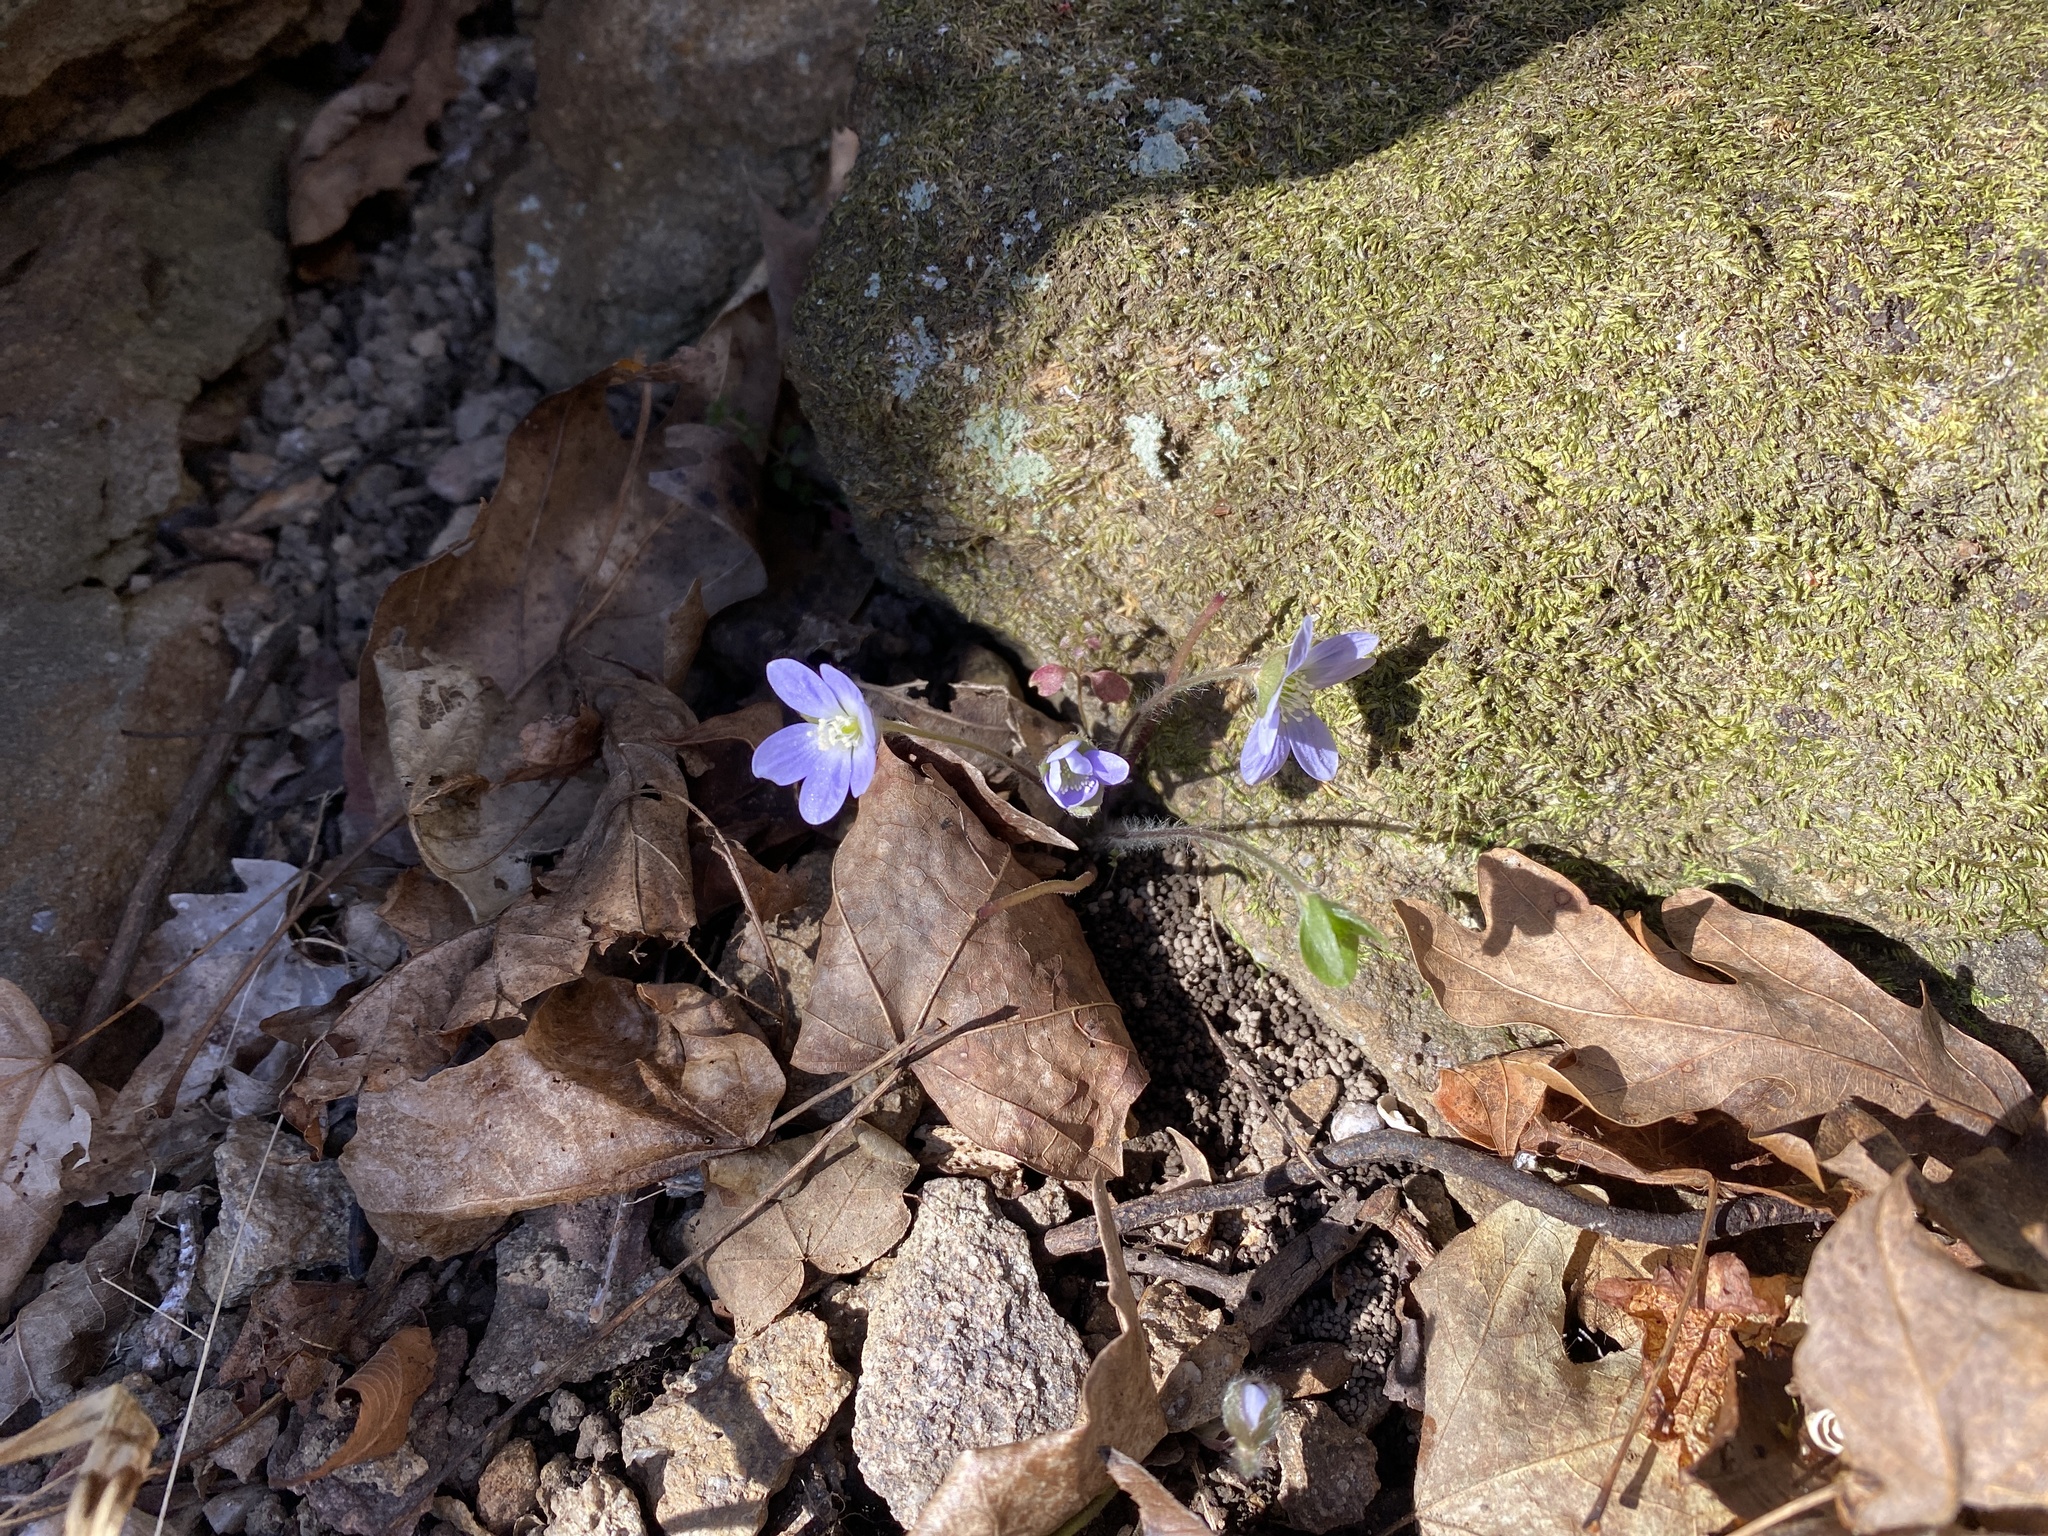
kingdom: Plantae
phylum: Tracheophyta
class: Magnoliopsida
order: Ranunculales
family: Ranunculaceae
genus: Hepatica
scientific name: Hepatica americana
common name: American hepatica
